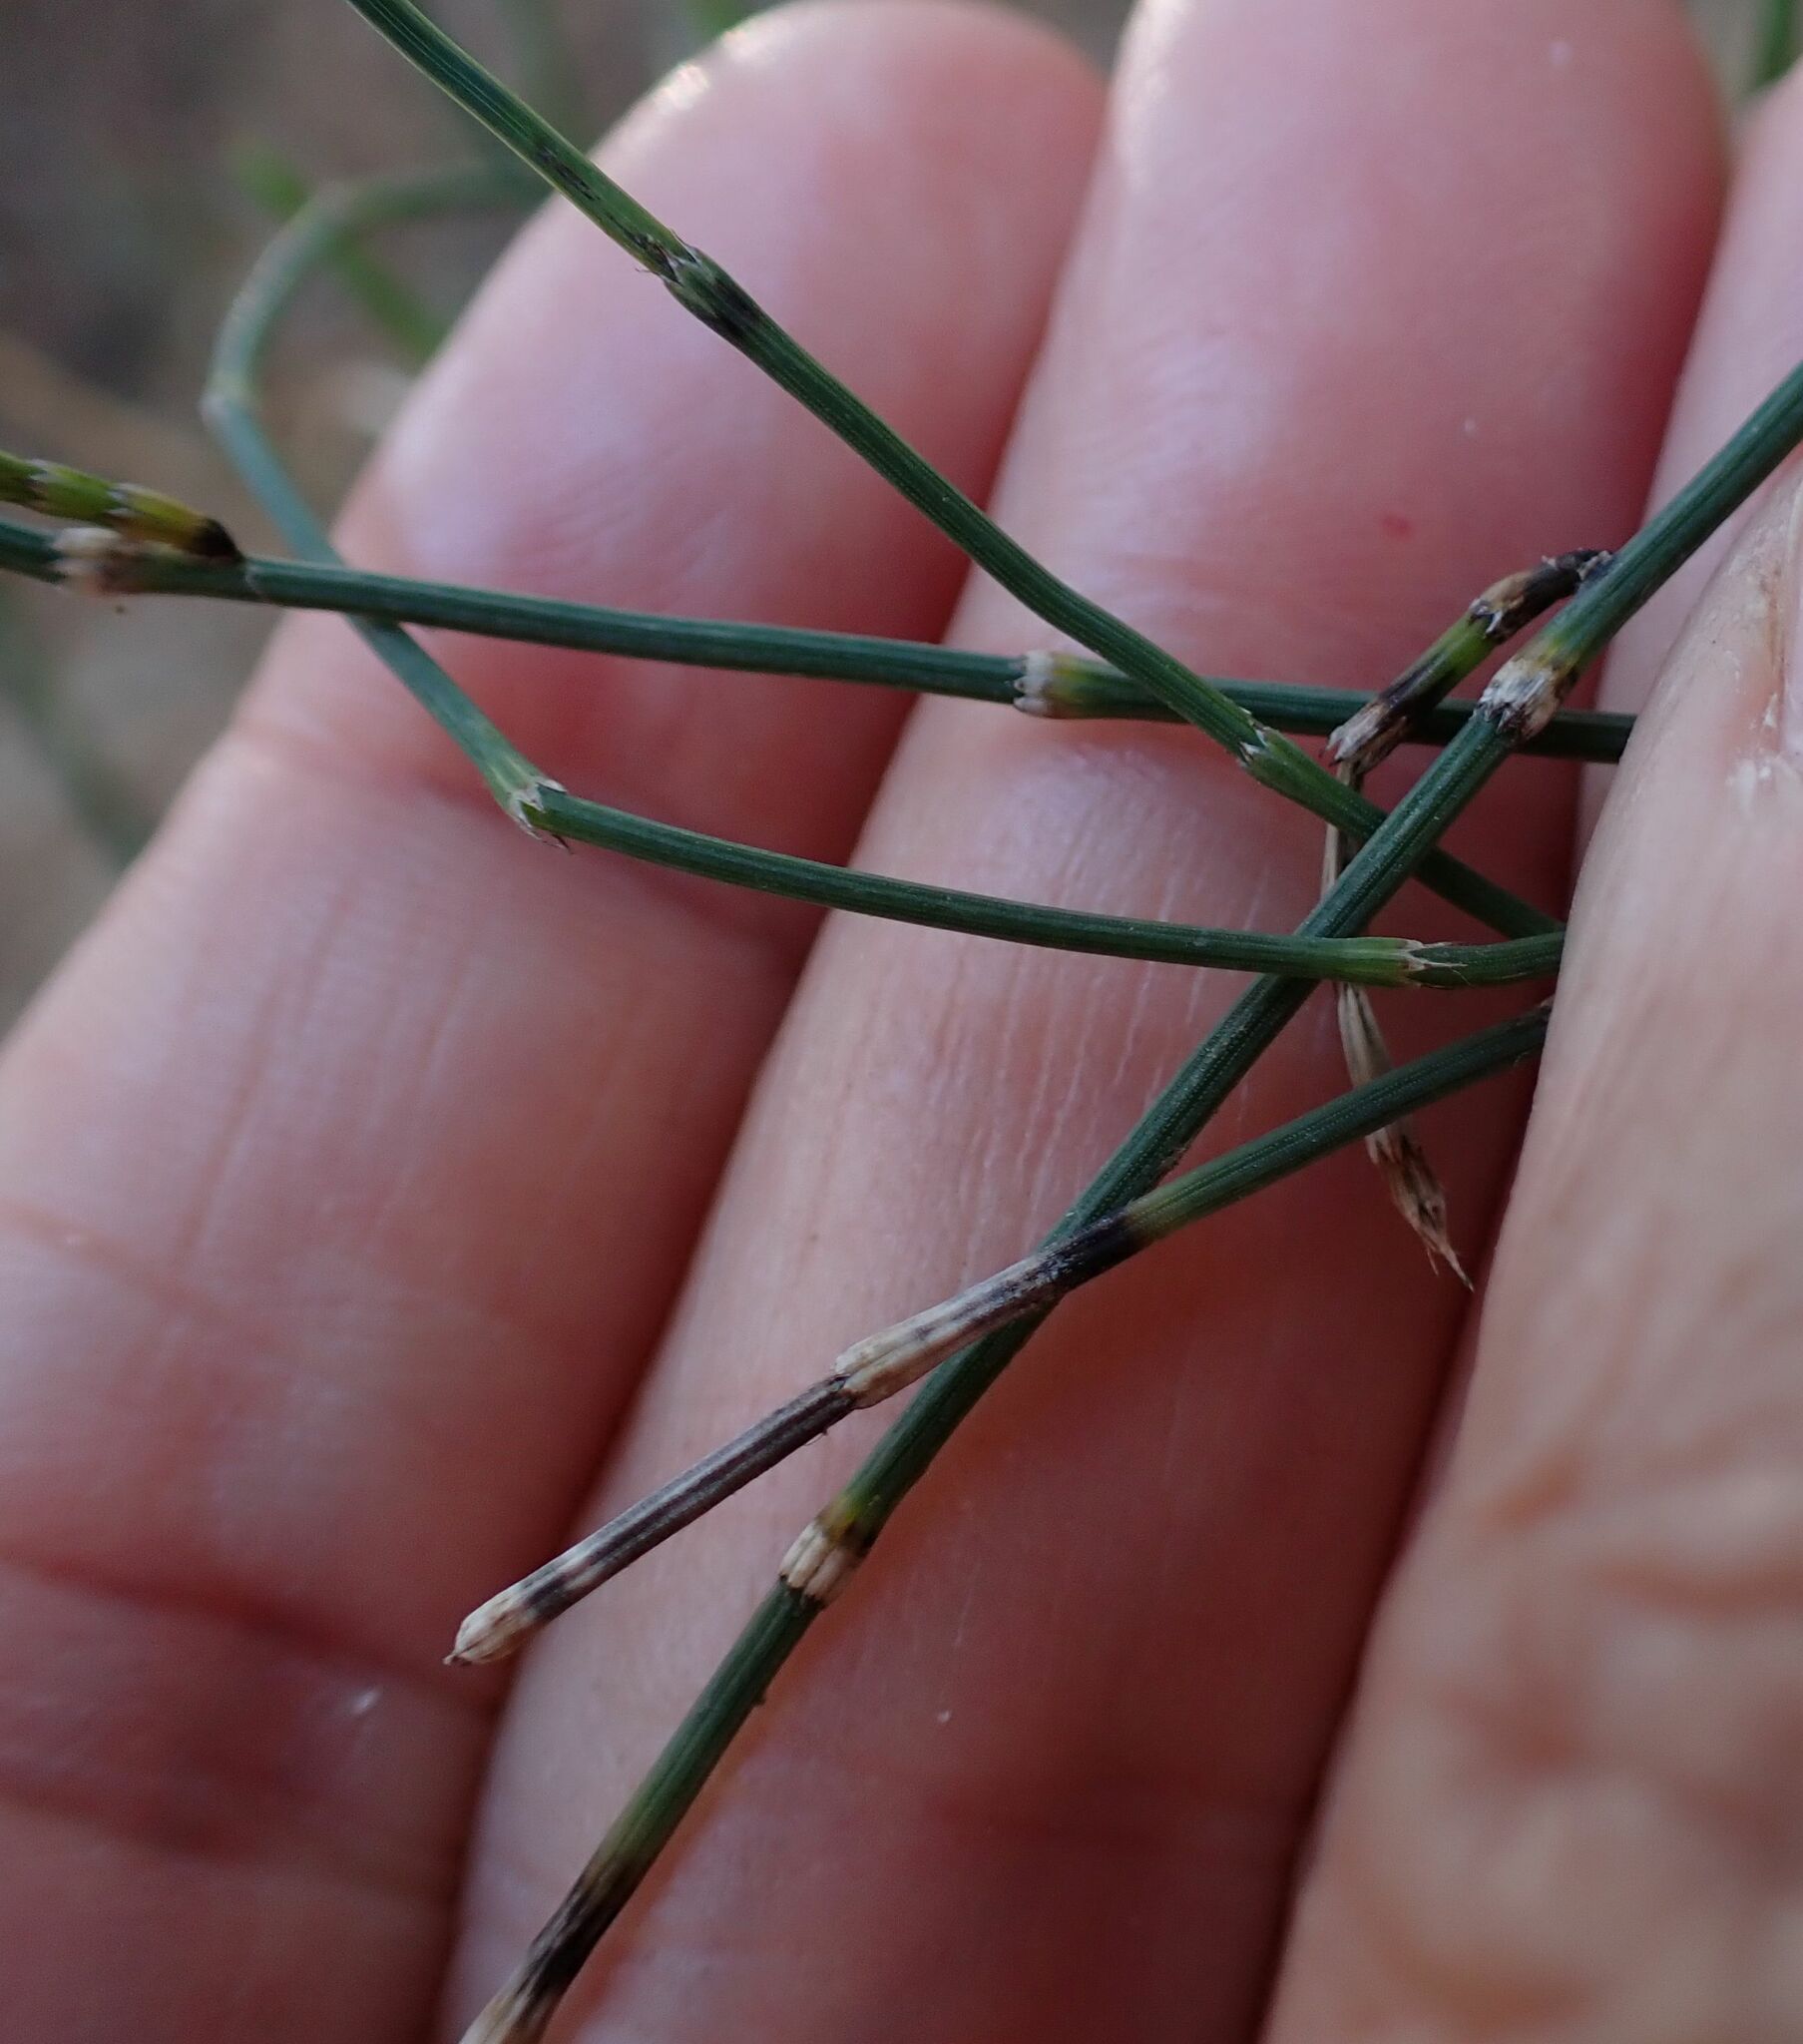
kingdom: Plantae
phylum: Tracheophyta
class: Polypodiopsida
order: Equisetales
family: Equisetaceae
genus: Equisetum
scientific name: Equisetum ramosissimum
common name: Branched horsetail
